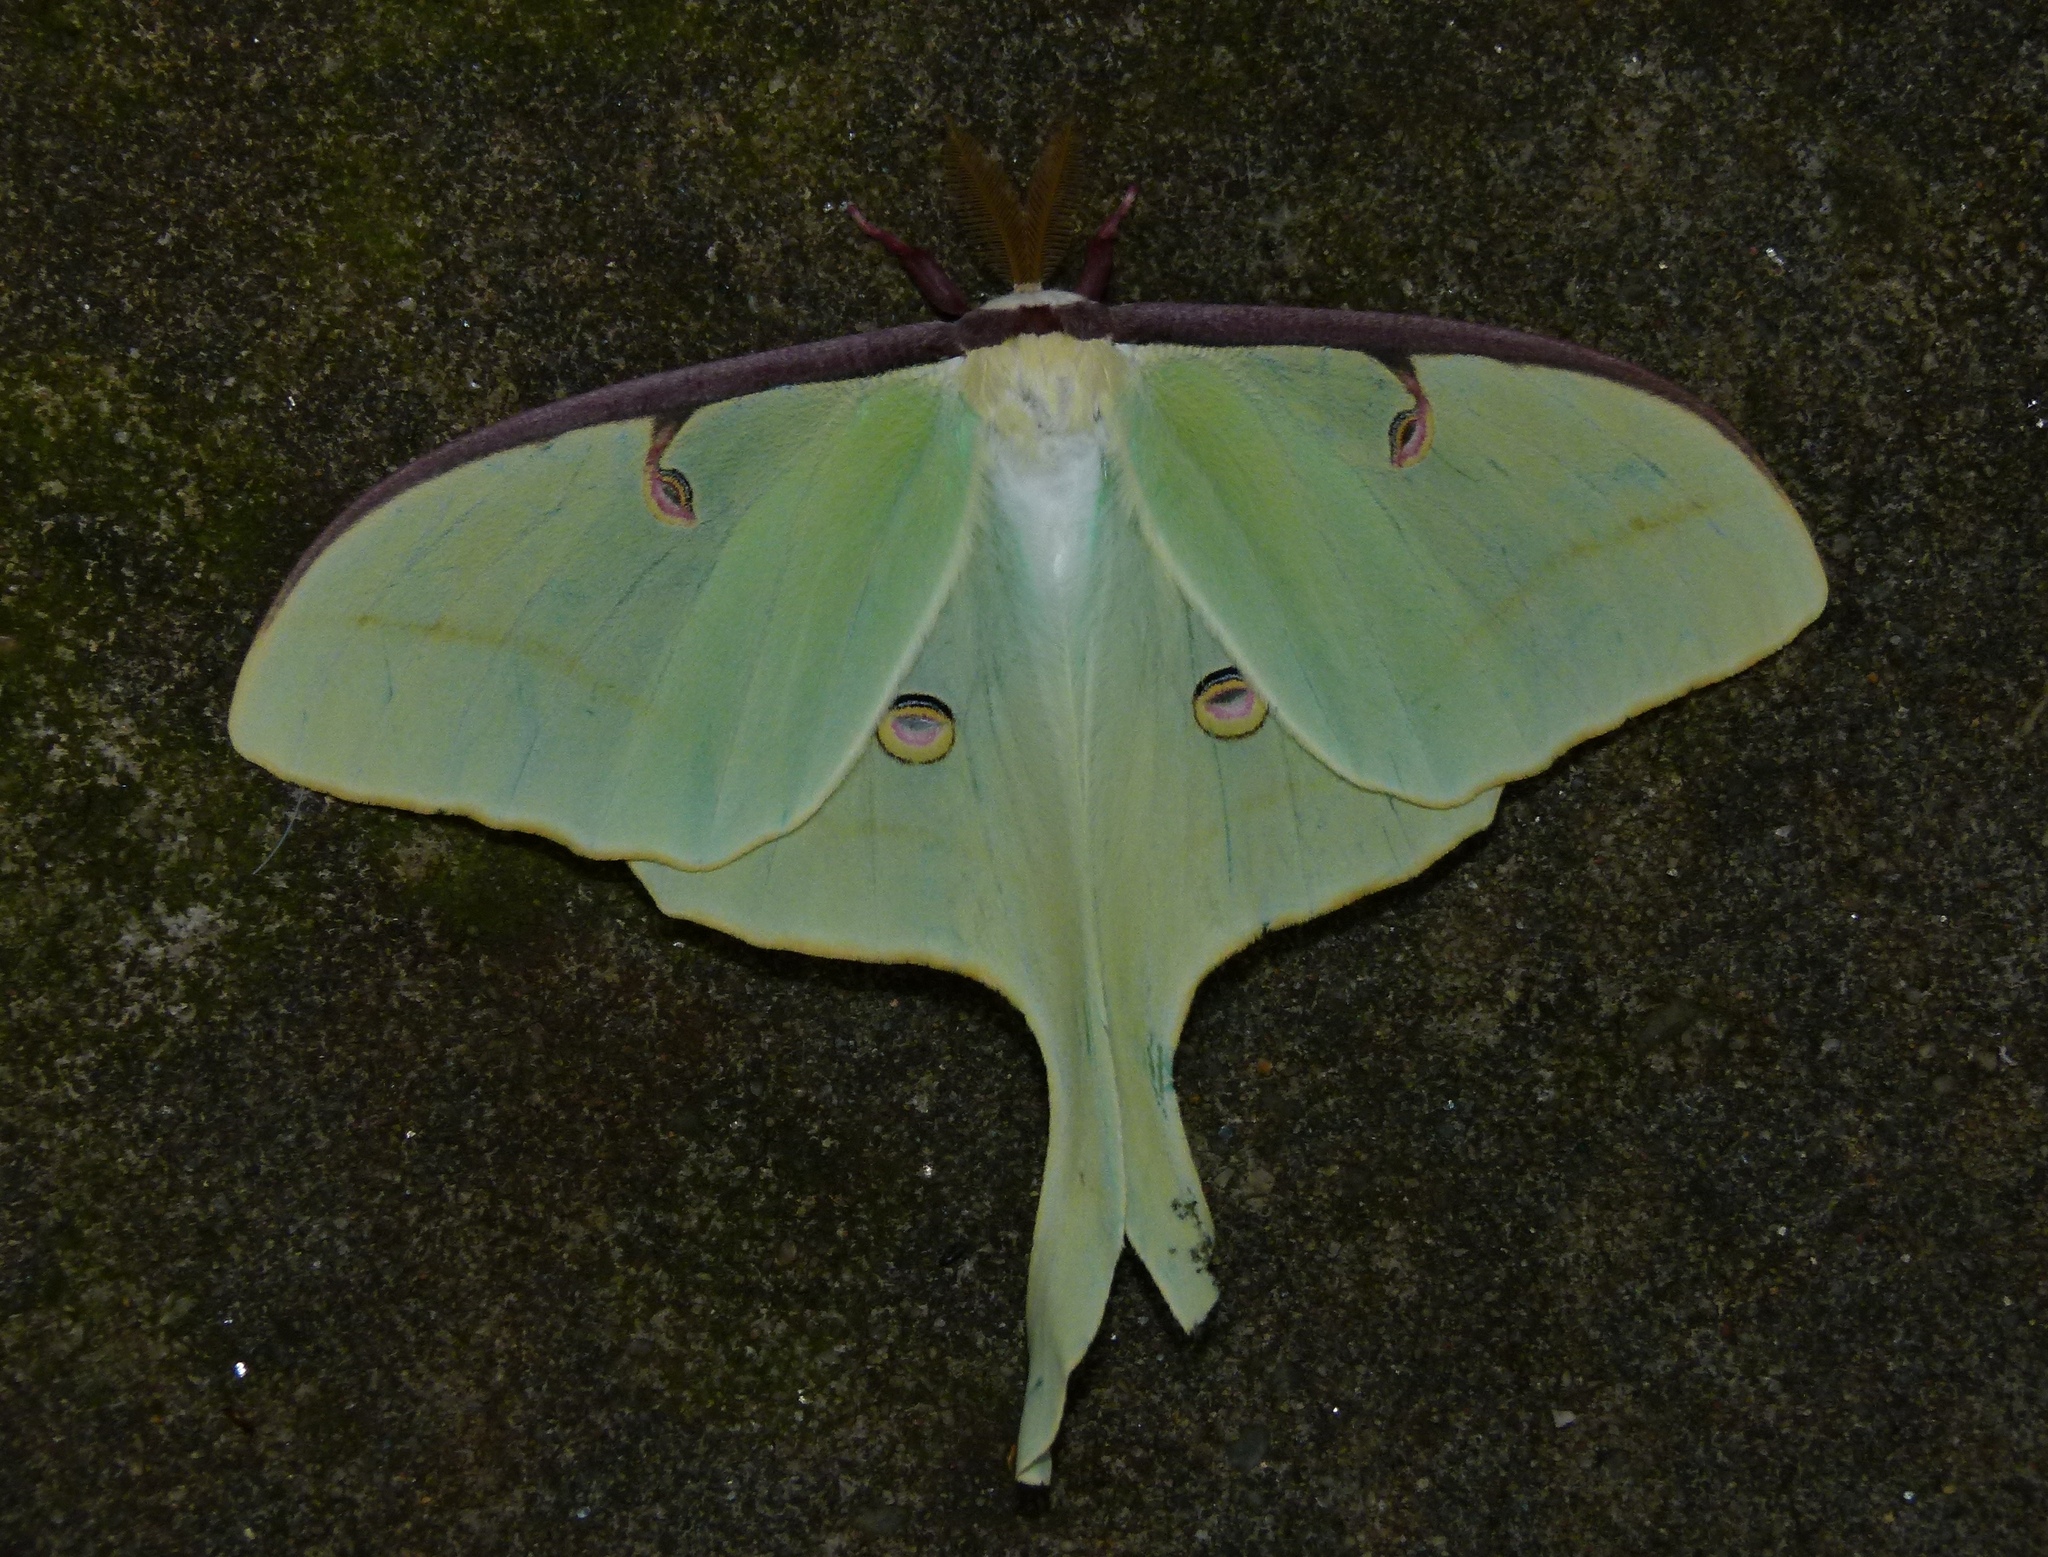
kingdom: Animalia
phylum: Arthropoda
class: Insecta
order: Lepidoptera
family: Saturniidae
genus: Actias
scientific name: Actias luna
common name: Luna moth
